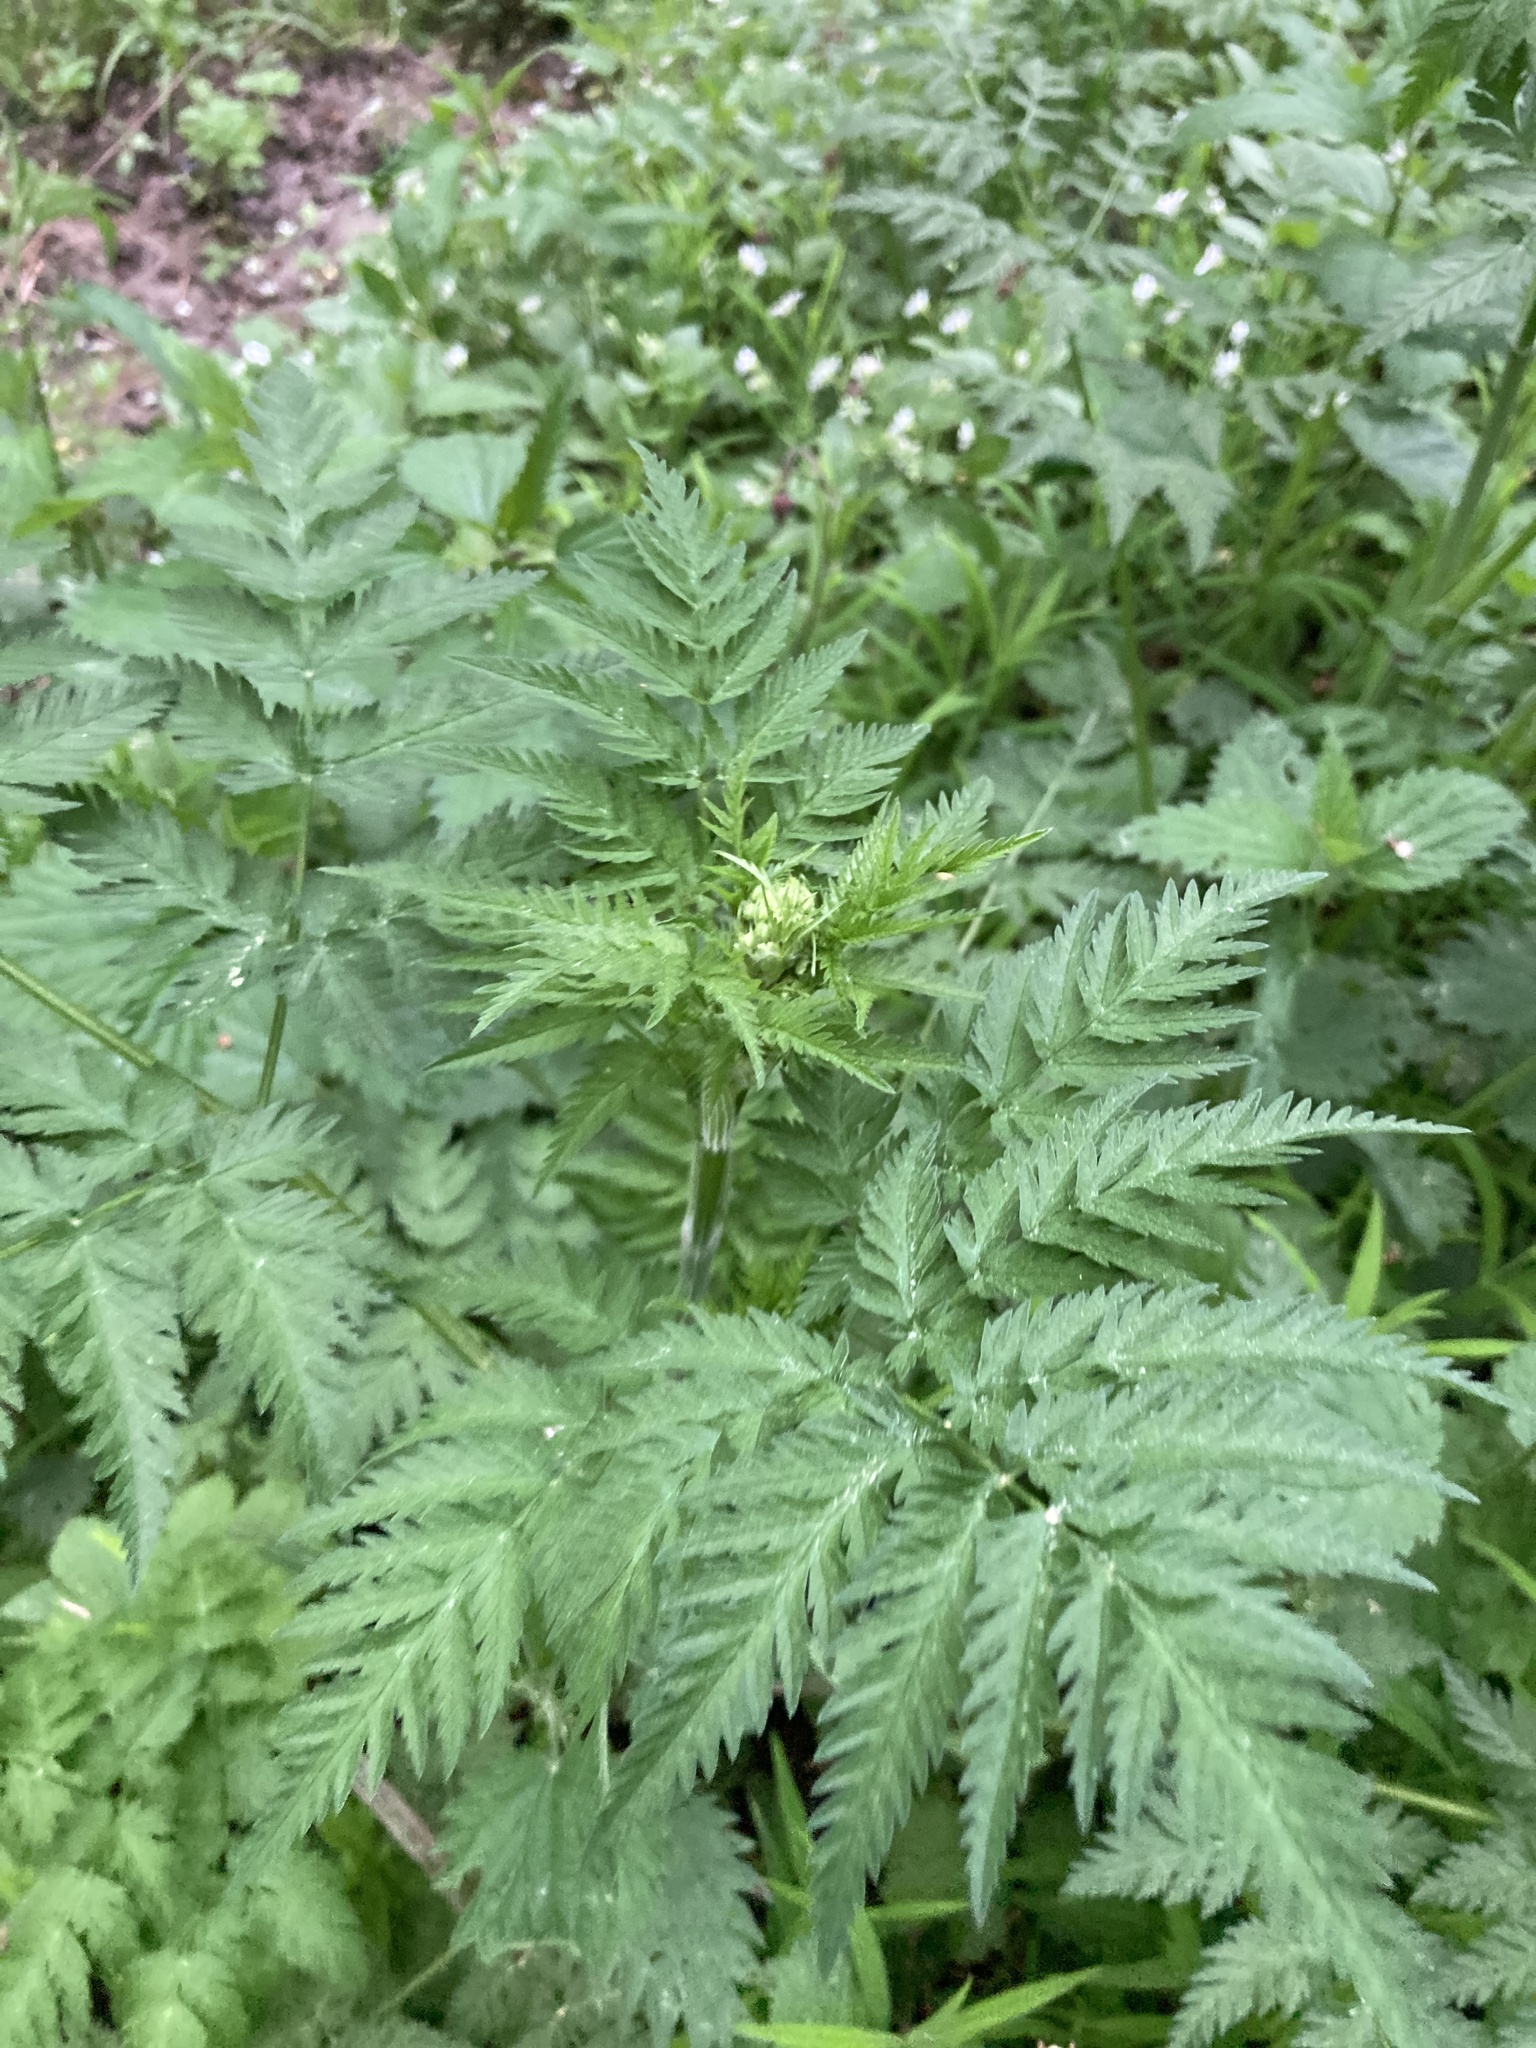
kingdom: Plantae
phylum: Tracheophyta
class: Magnoliopsida
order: Apiales
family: Apiaceae
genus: Anthriscus
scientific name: Anthriscus sylvestris
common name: Cow parsley
